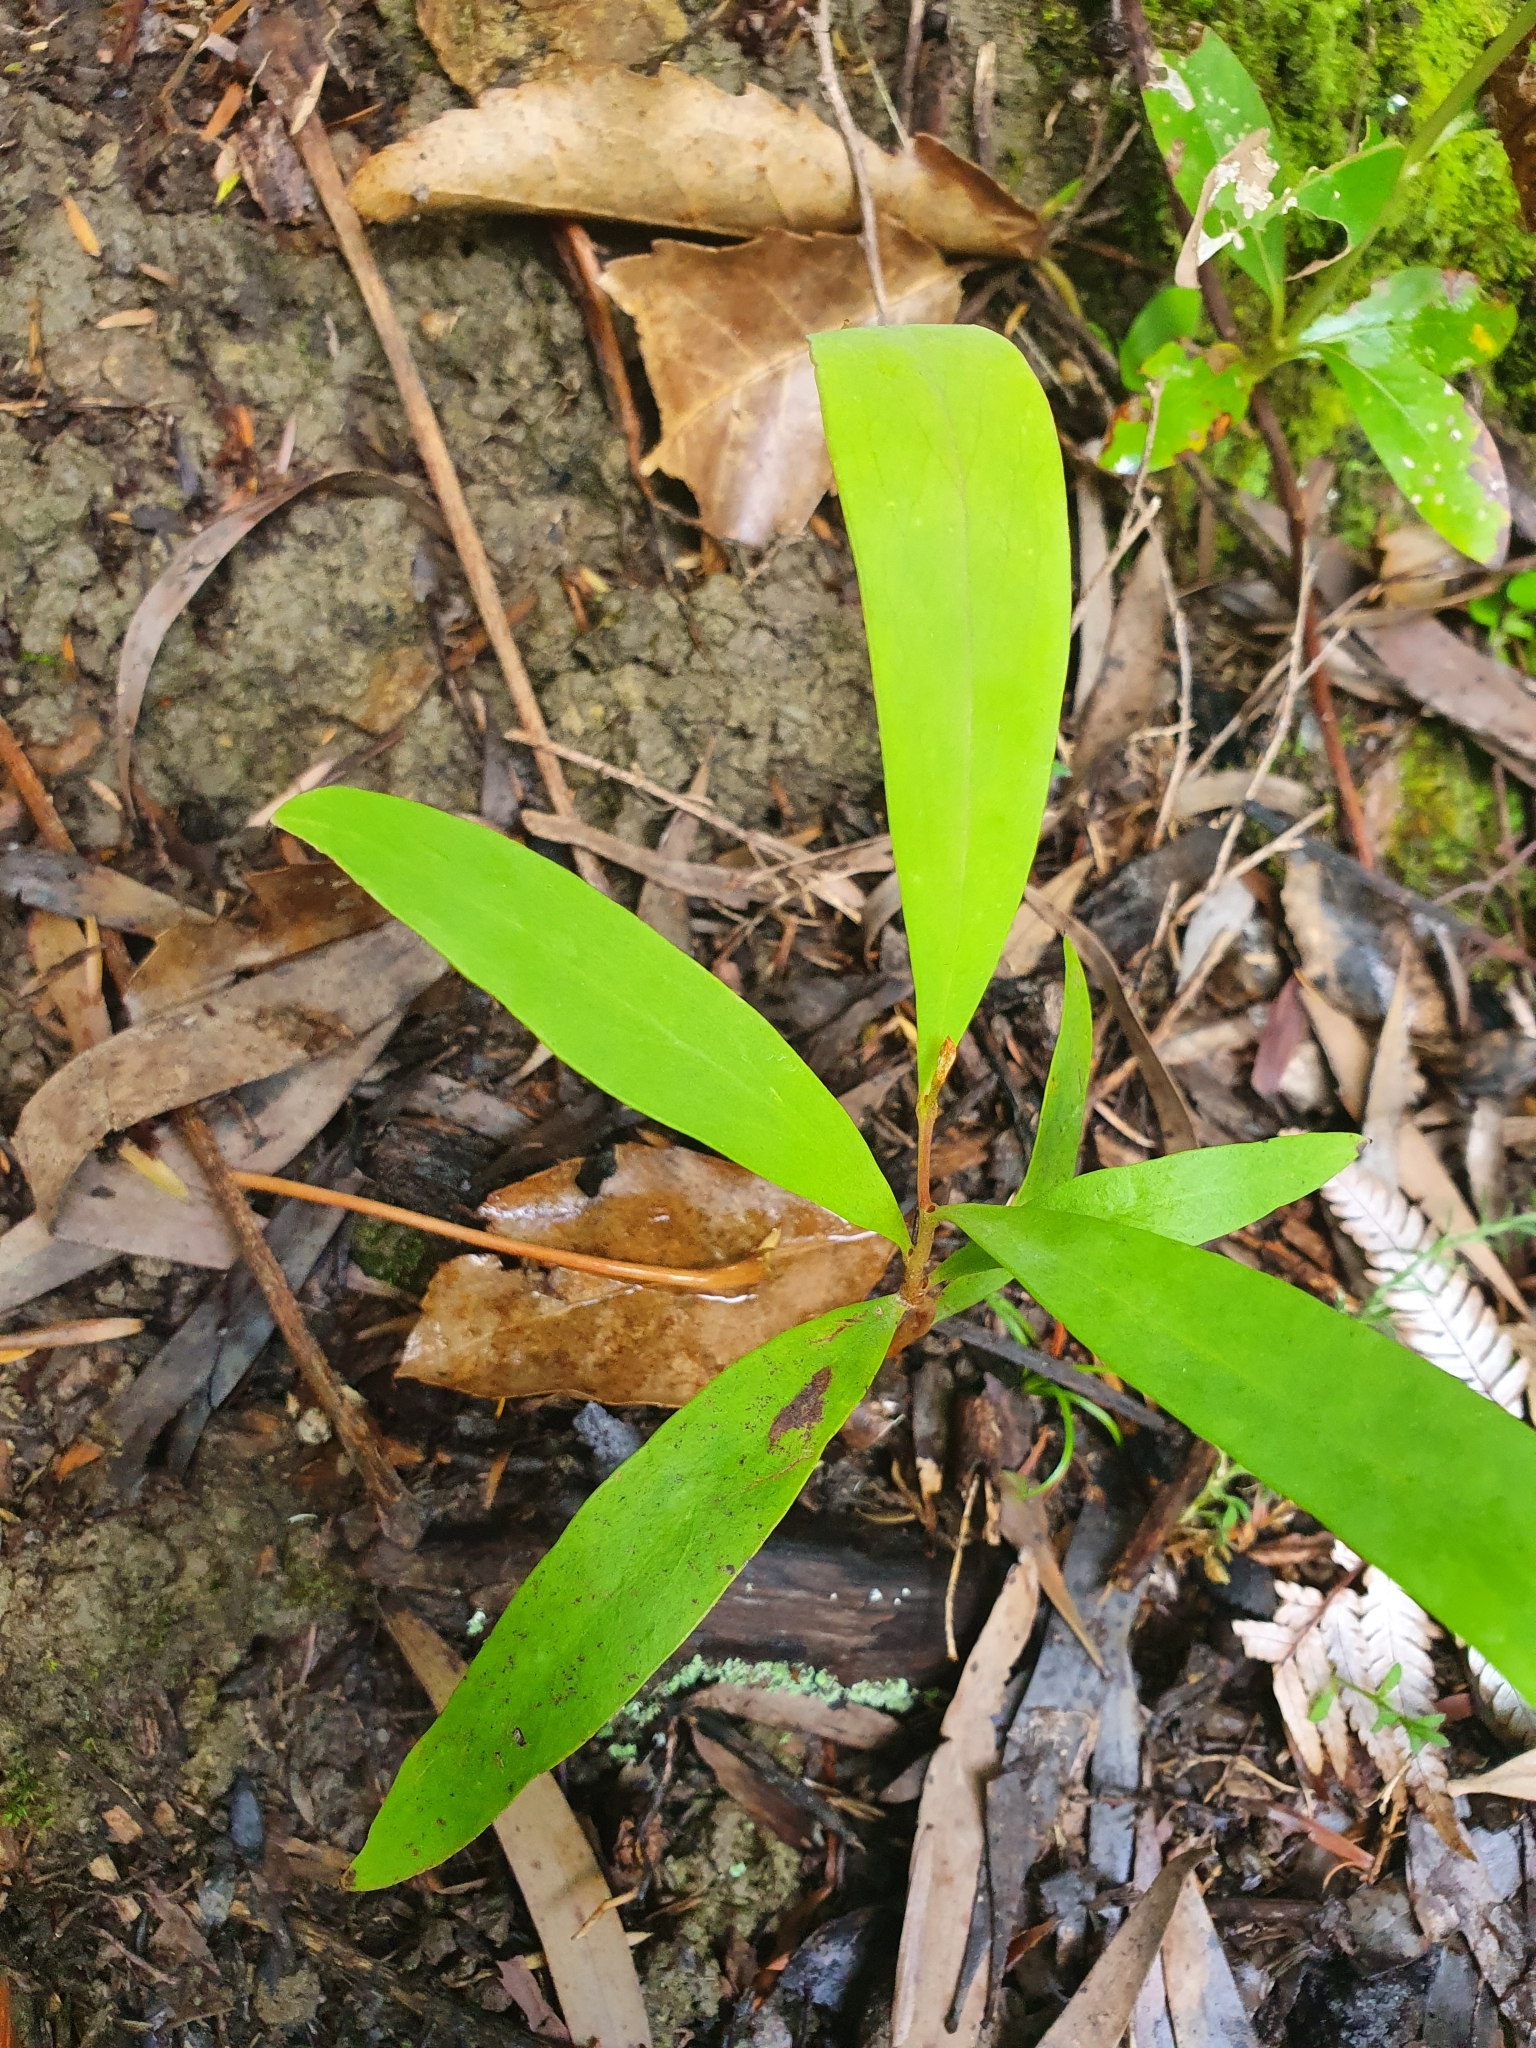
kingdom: Plantae
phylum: Tracheophyta
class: Magnoliopsida
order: Proteales
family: Proteaceae
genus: Hakea
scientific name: Hakea salicifolia
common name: Willow hakea
